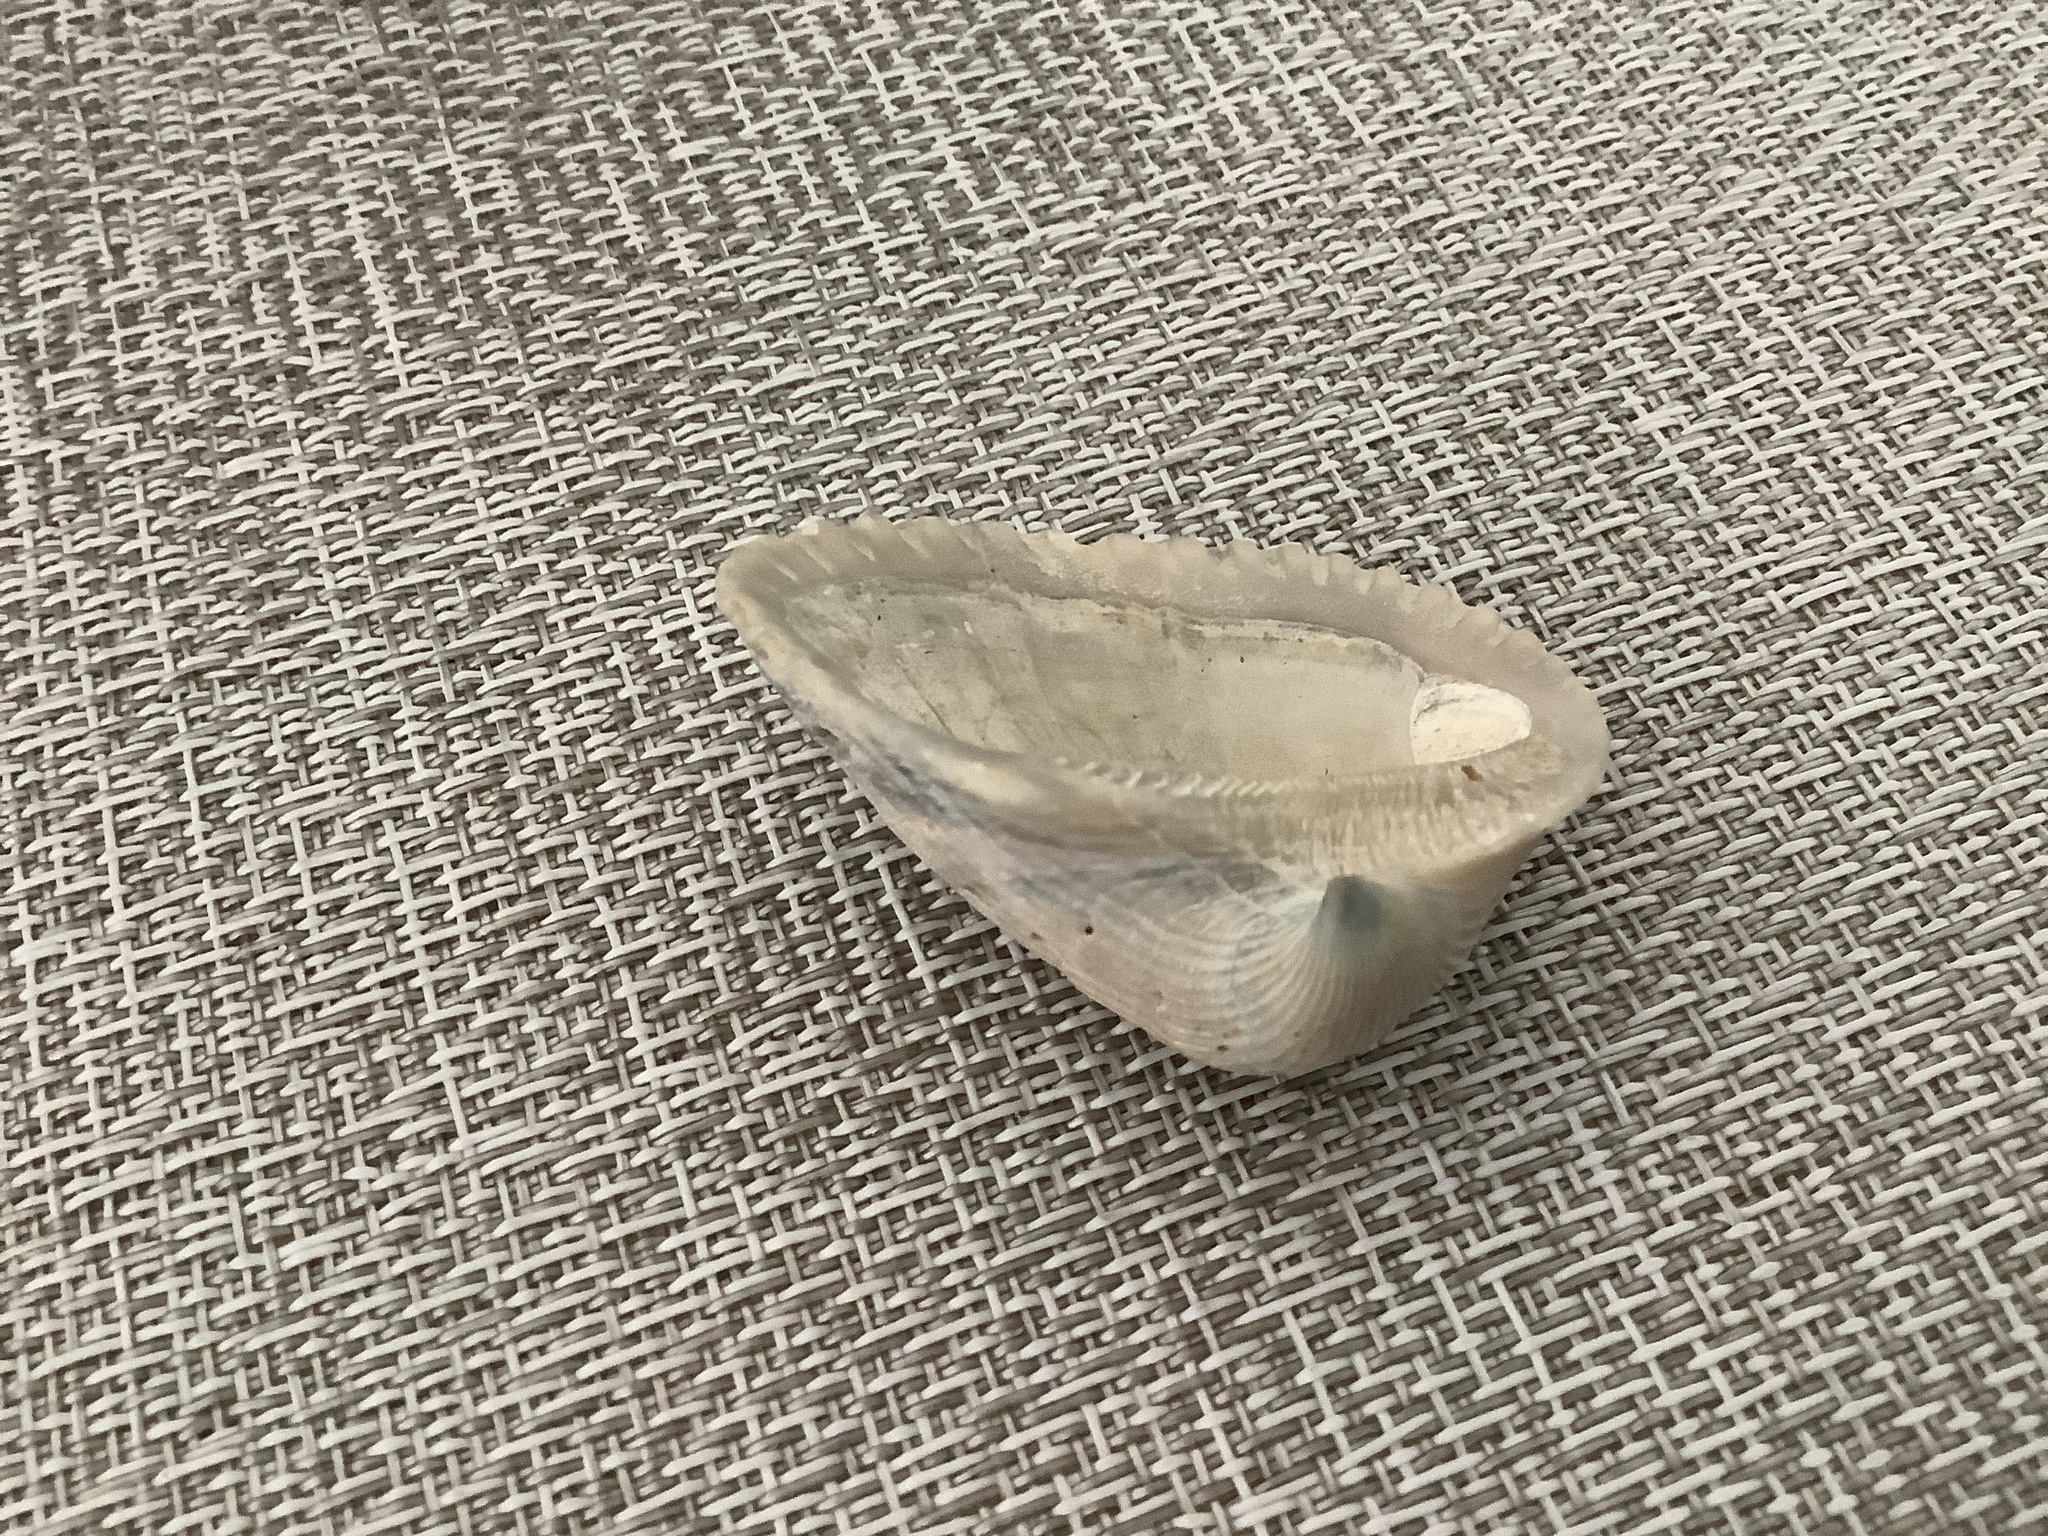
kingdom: Animalia
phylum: Mollusca
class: Bivalvia
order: Arcida
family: Noetiidae
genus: Noetia
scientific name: Noetia ponderosa
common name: Ponderous ark
